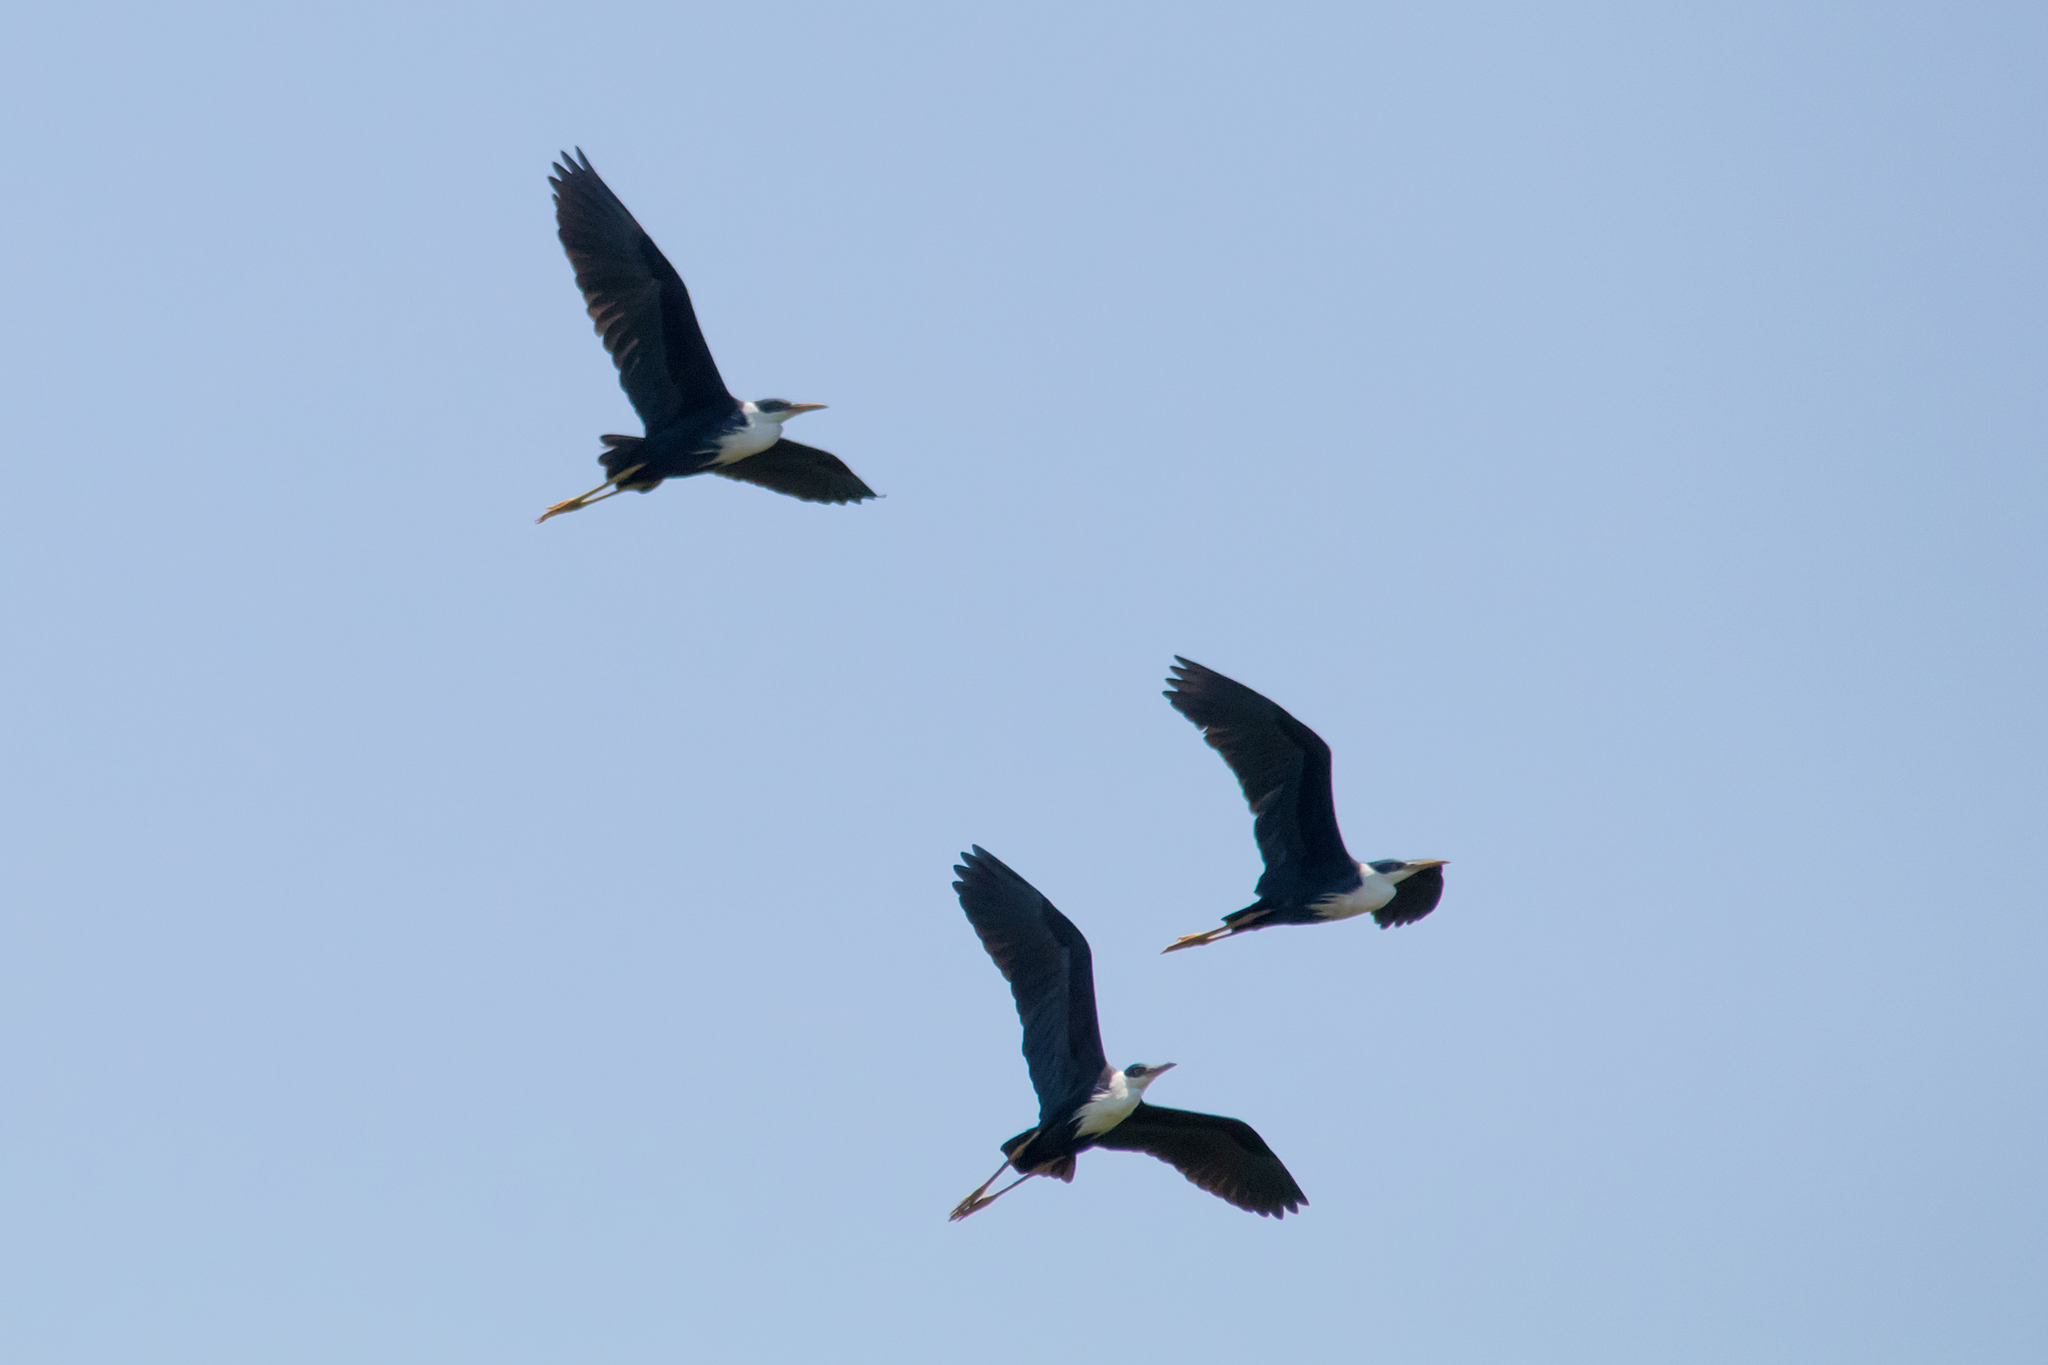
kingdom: Animalia
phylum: Chordata
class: Aves
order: Pelecaniformes
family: Ardeidae
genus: Egretta
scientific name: Egretta picata
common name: Pied heron
